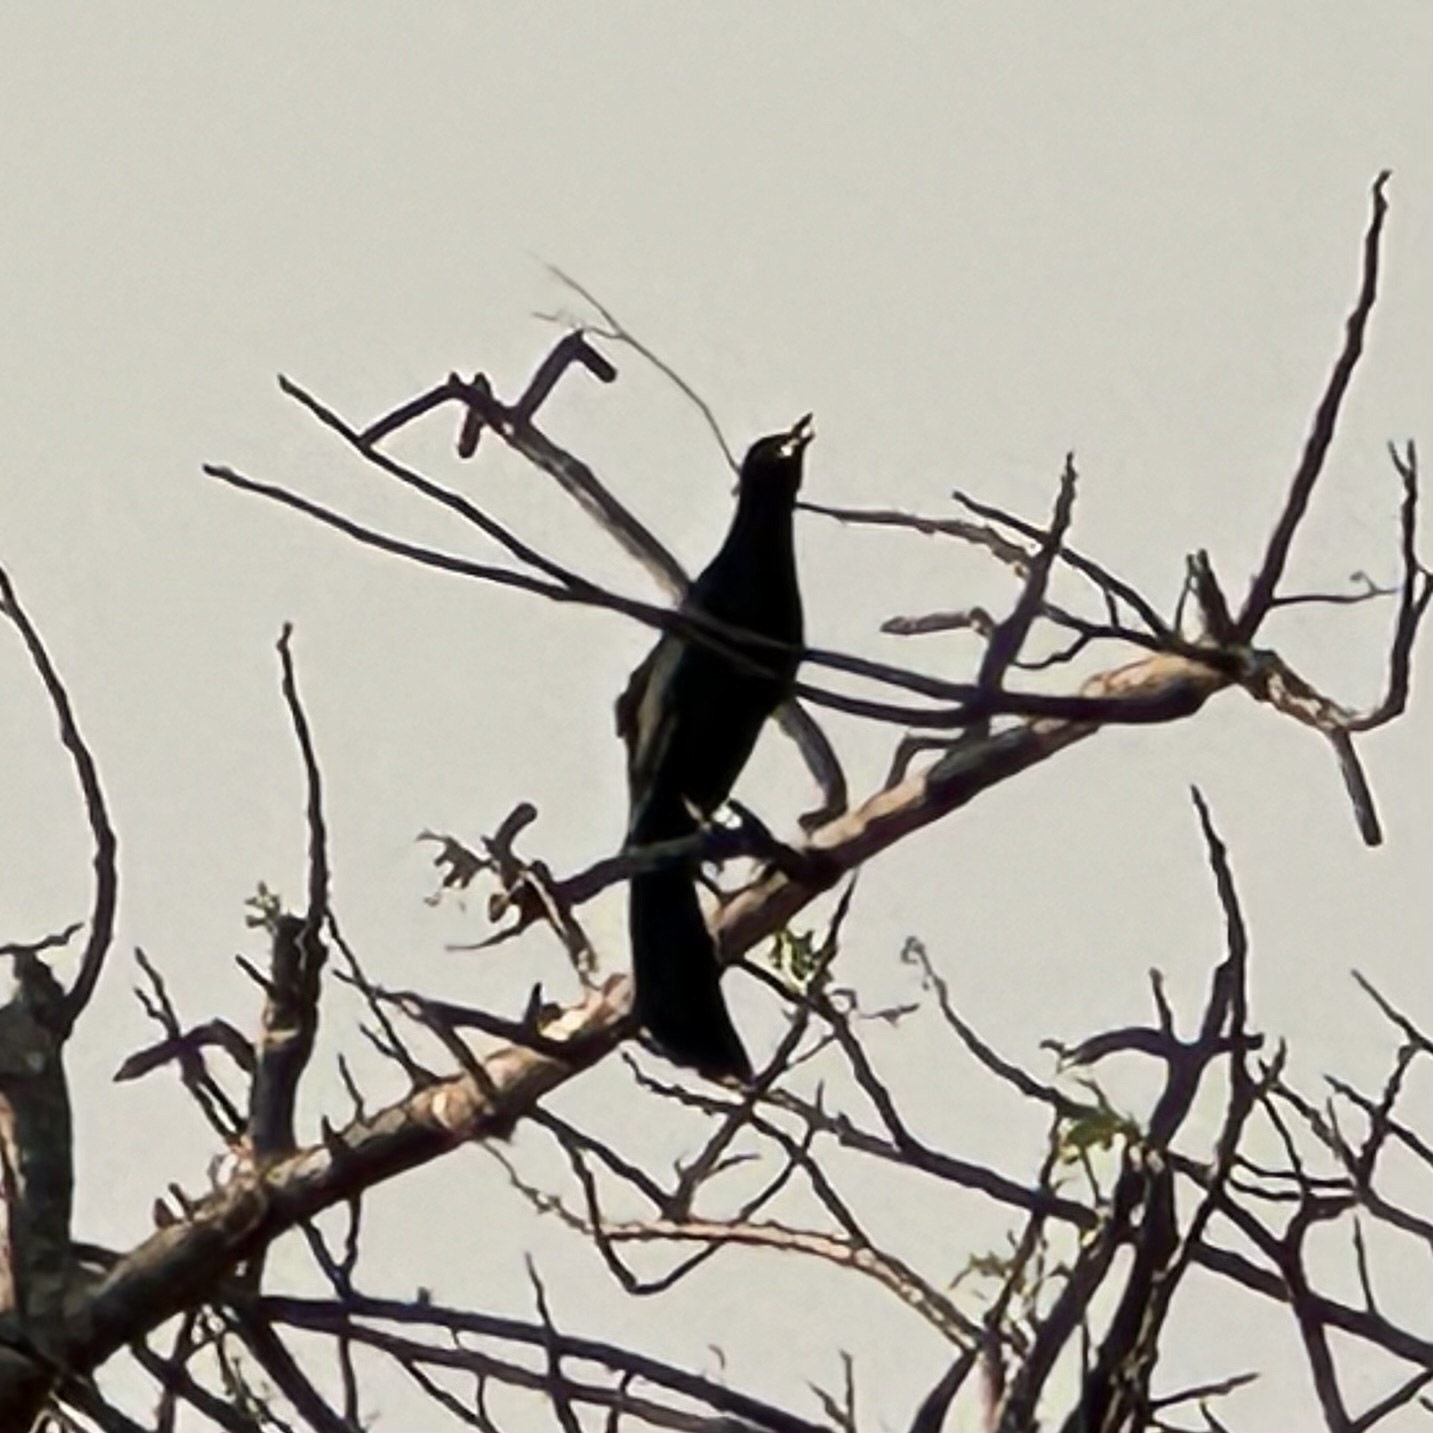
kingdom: Animalia
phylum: Chordata
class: Aves
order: Passeriformes
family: Icteridae
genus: Quiscalus
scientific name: Quiscalus mexicanus
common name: Great-tailed grackle
